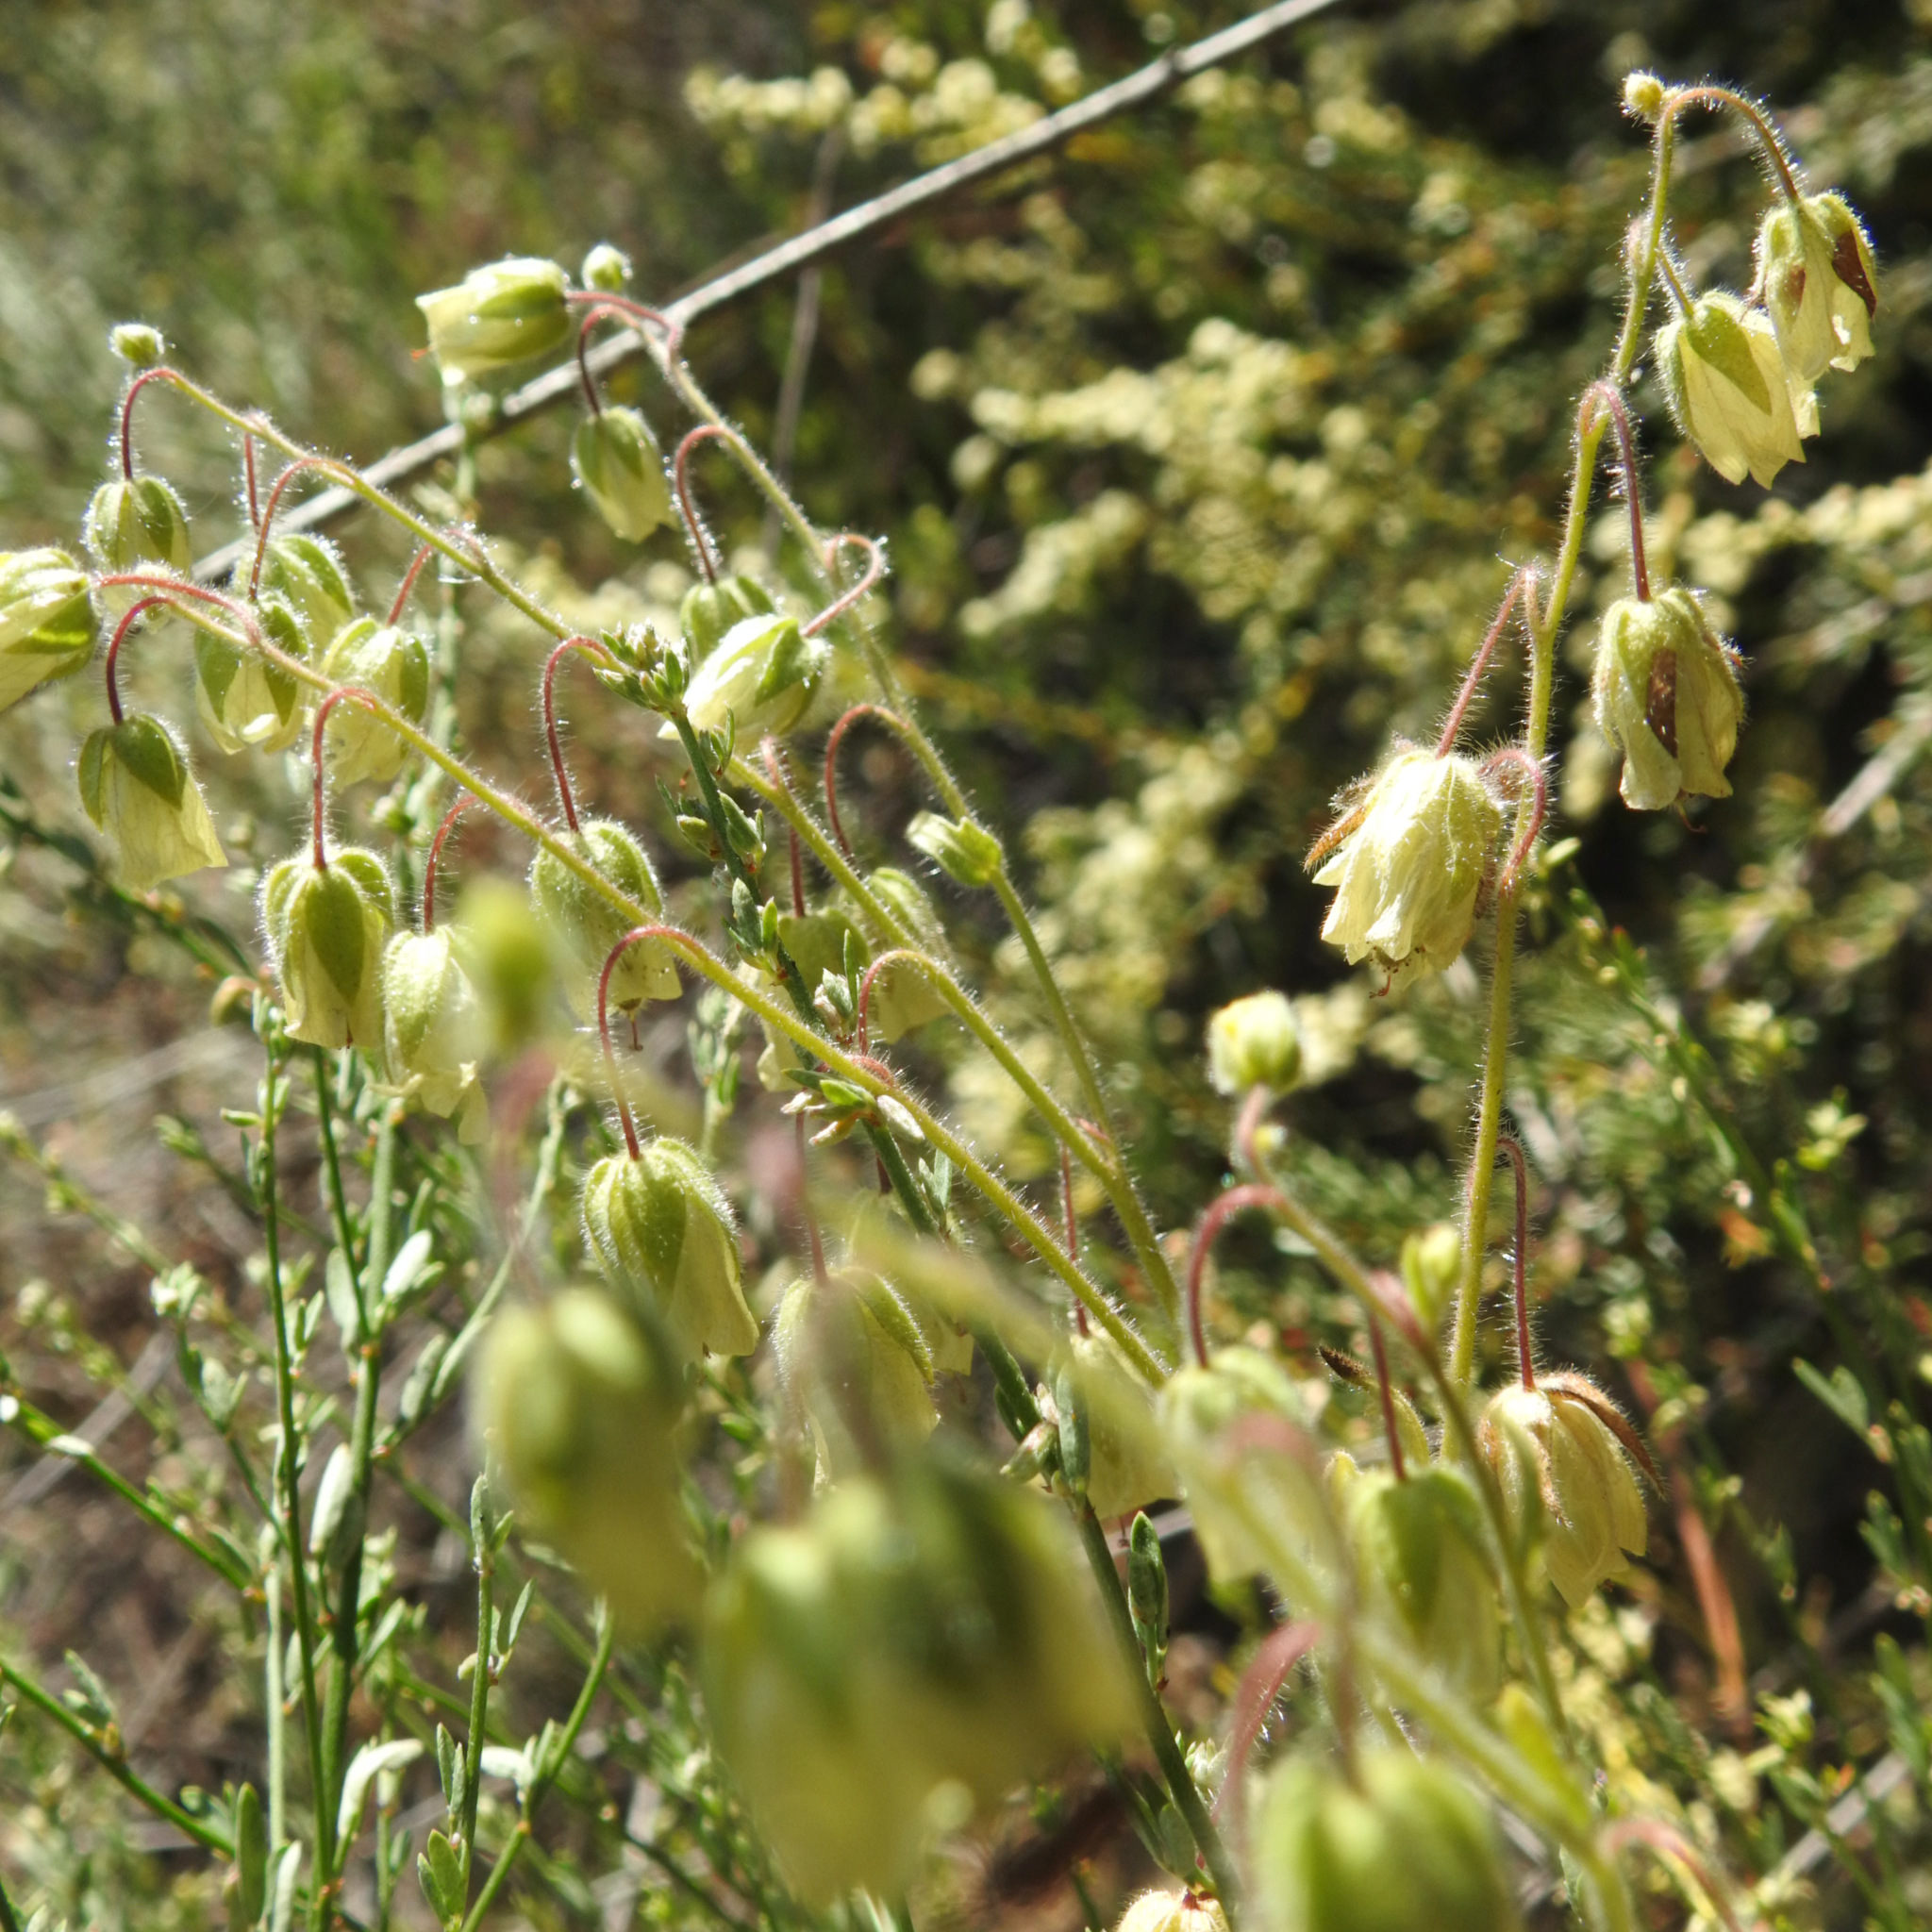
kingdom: Plantae
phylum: Tracheophyta
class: Magnoliopsida
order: Boraginales
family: Hydrophyllaceae
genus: Emmenanthe
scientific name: Emmenanthe penduliflora
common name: Whispering-bells
